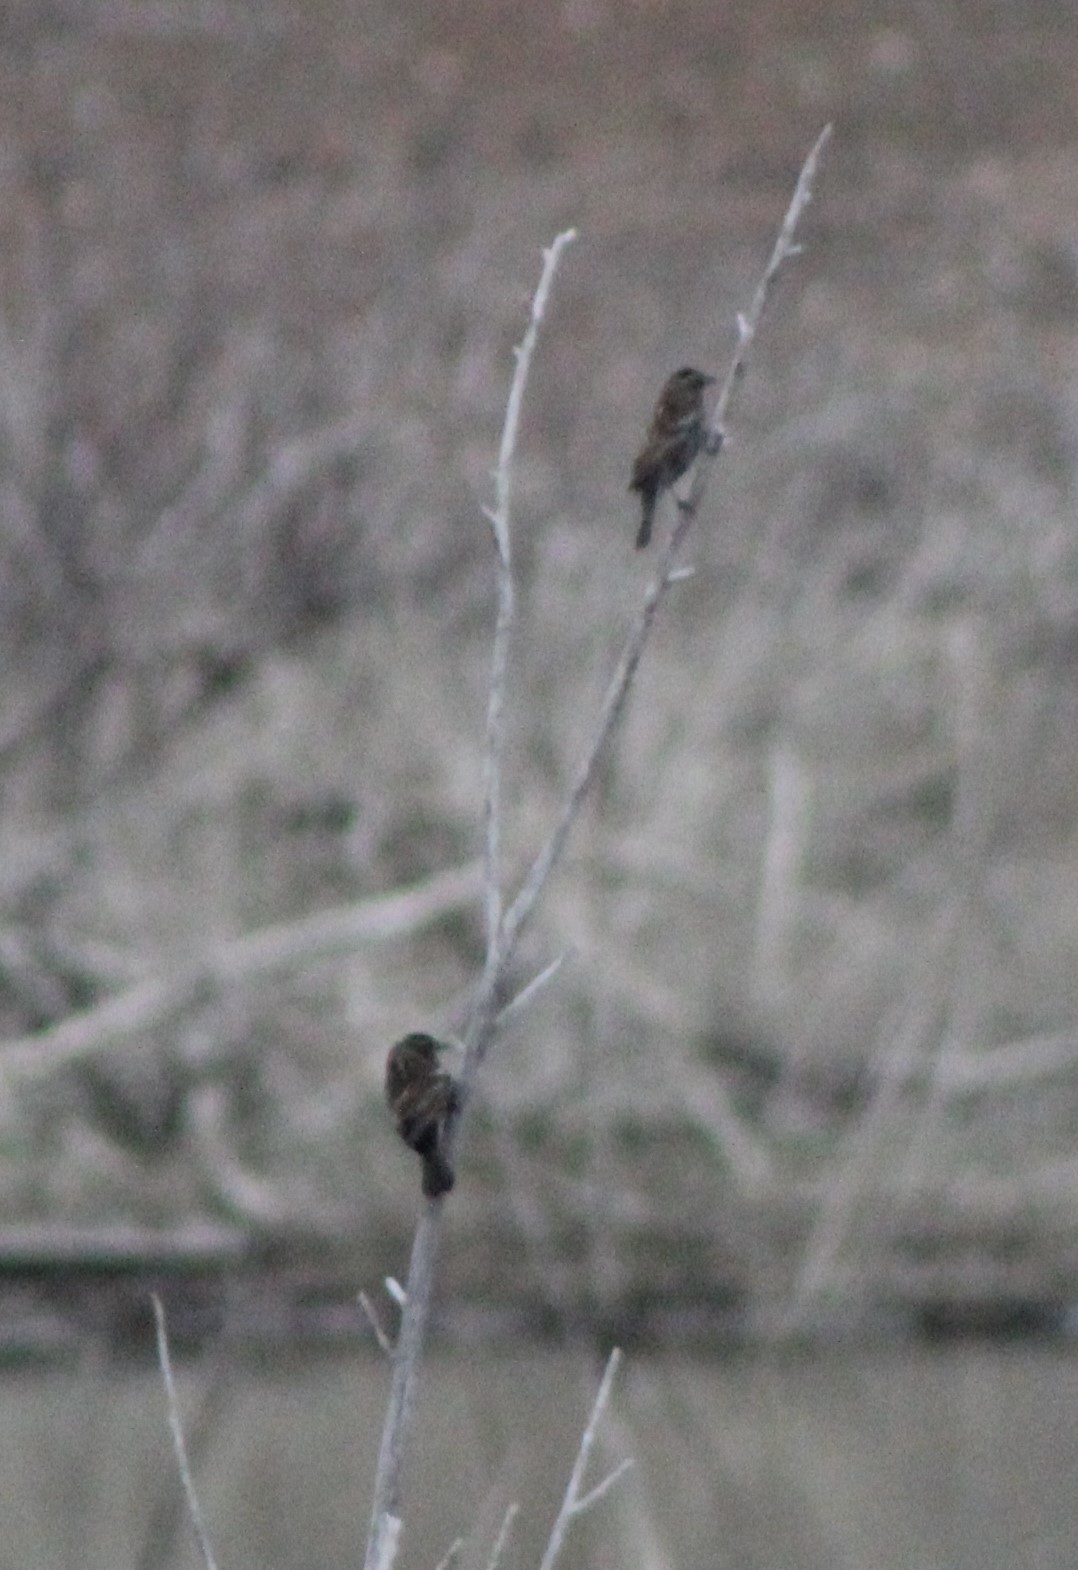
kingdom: Animalia
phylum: Chordata
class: Aves
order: Passeriformes
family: Icteridae
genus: Agelaius
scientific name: Agelaius phoeniceus
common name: Red-winged blackbird
